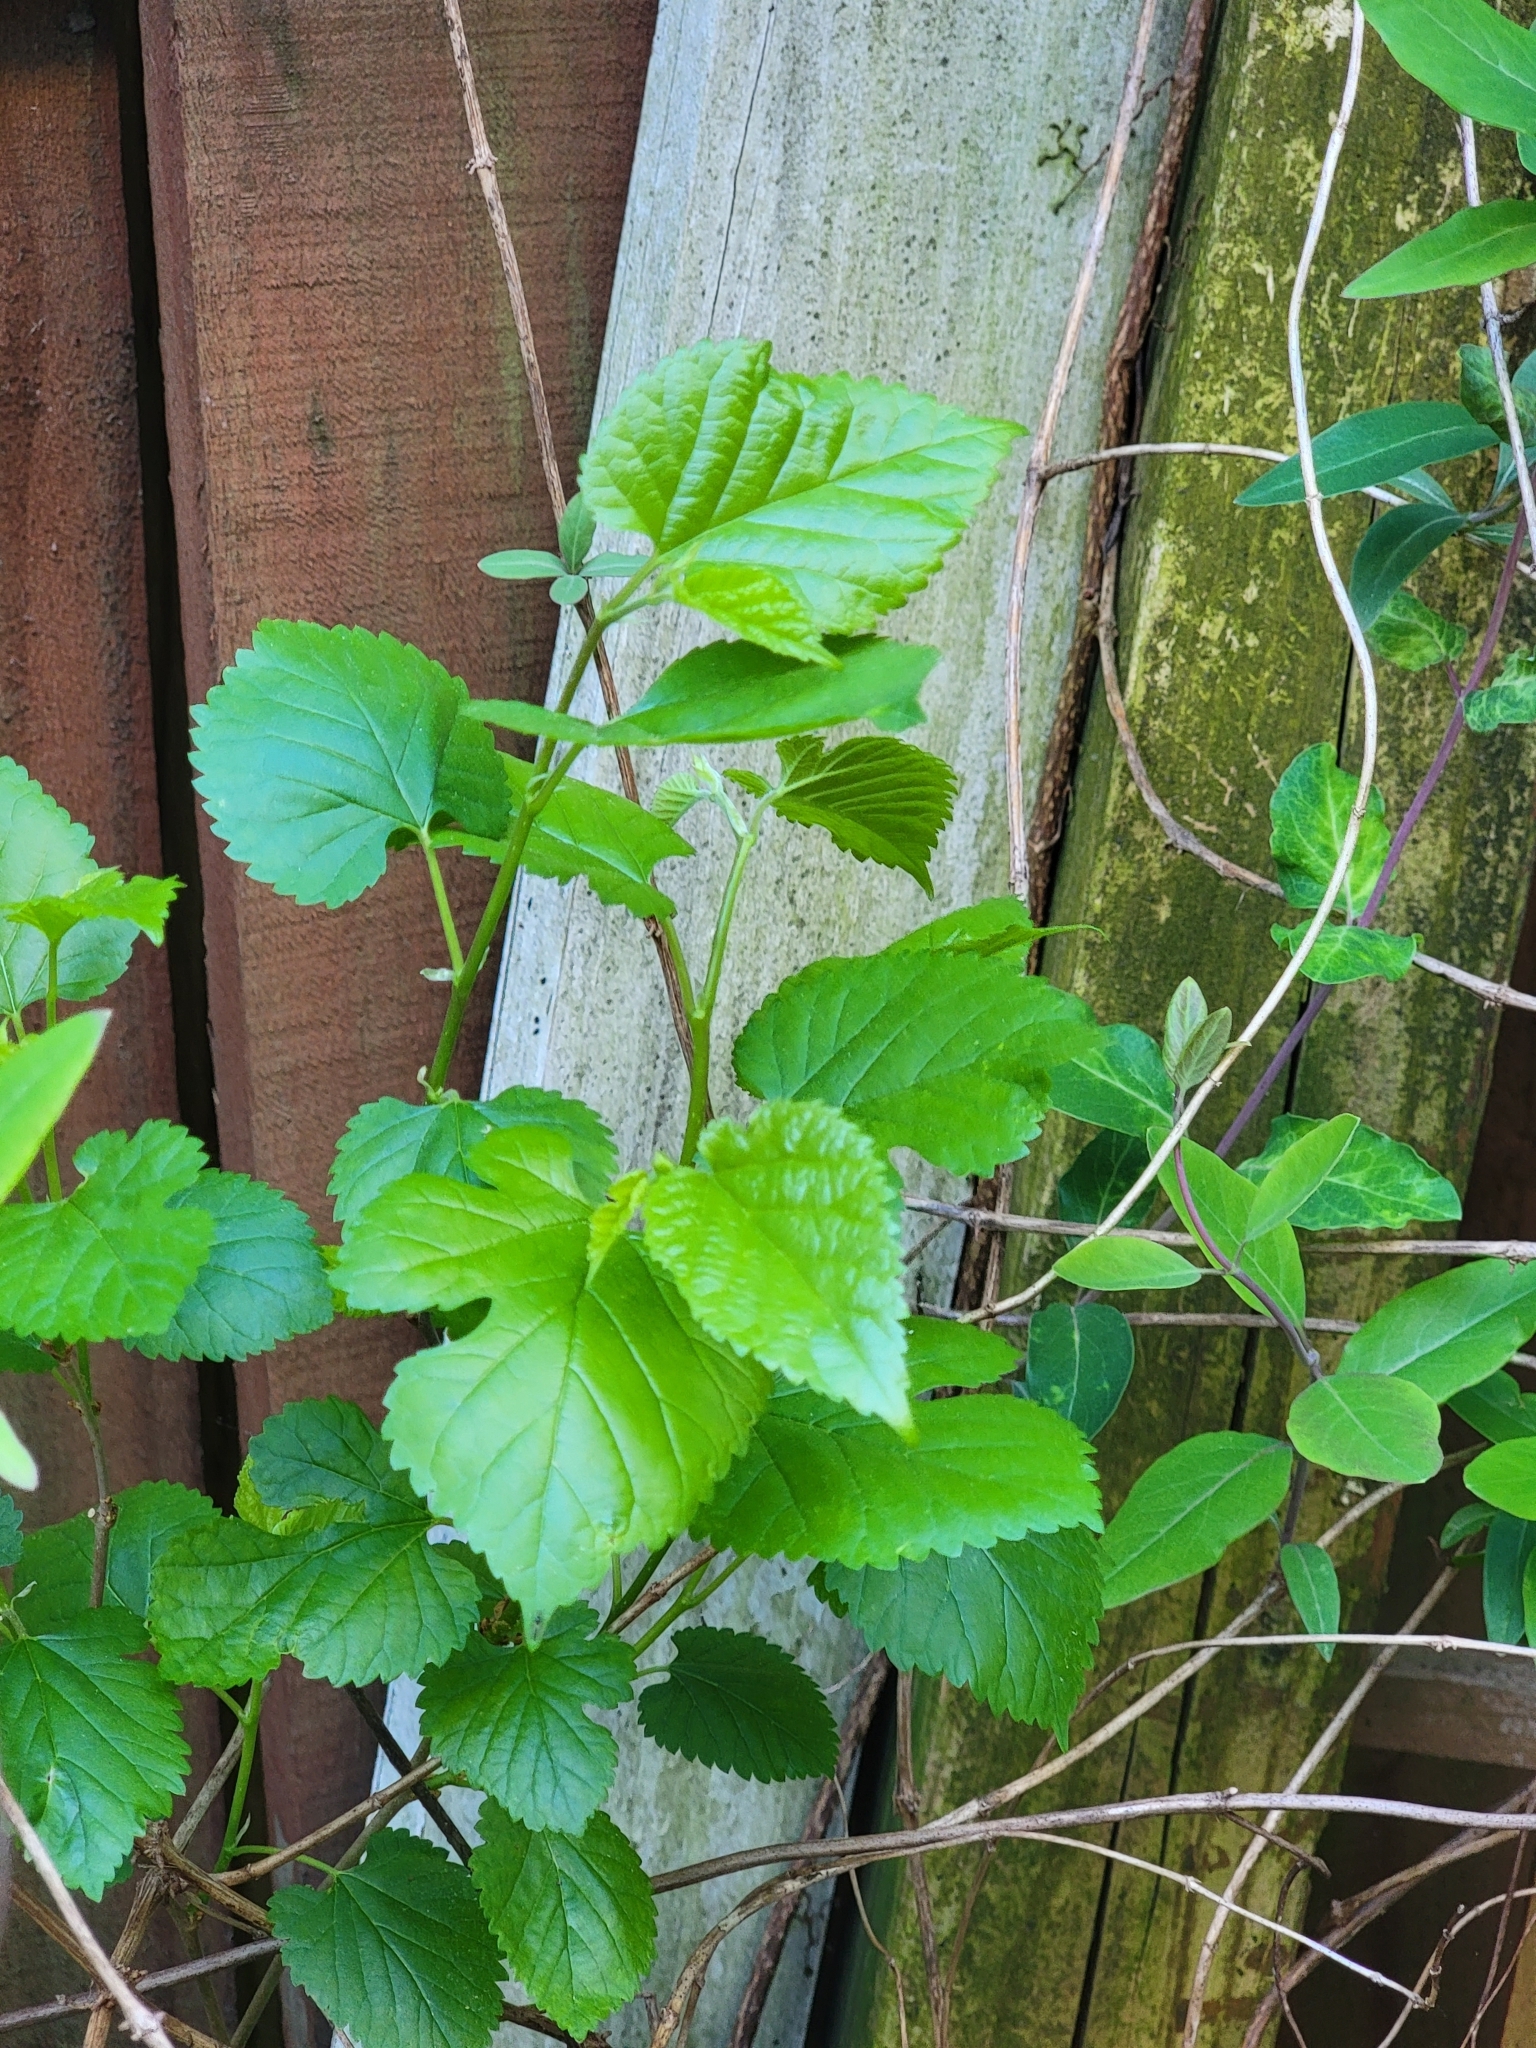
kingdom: Plantae
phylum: Tracheophyta
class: Magnoliopsida
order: Rosales
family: Moraceae
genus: Morus
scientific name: Morus alba
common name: White mulberry
